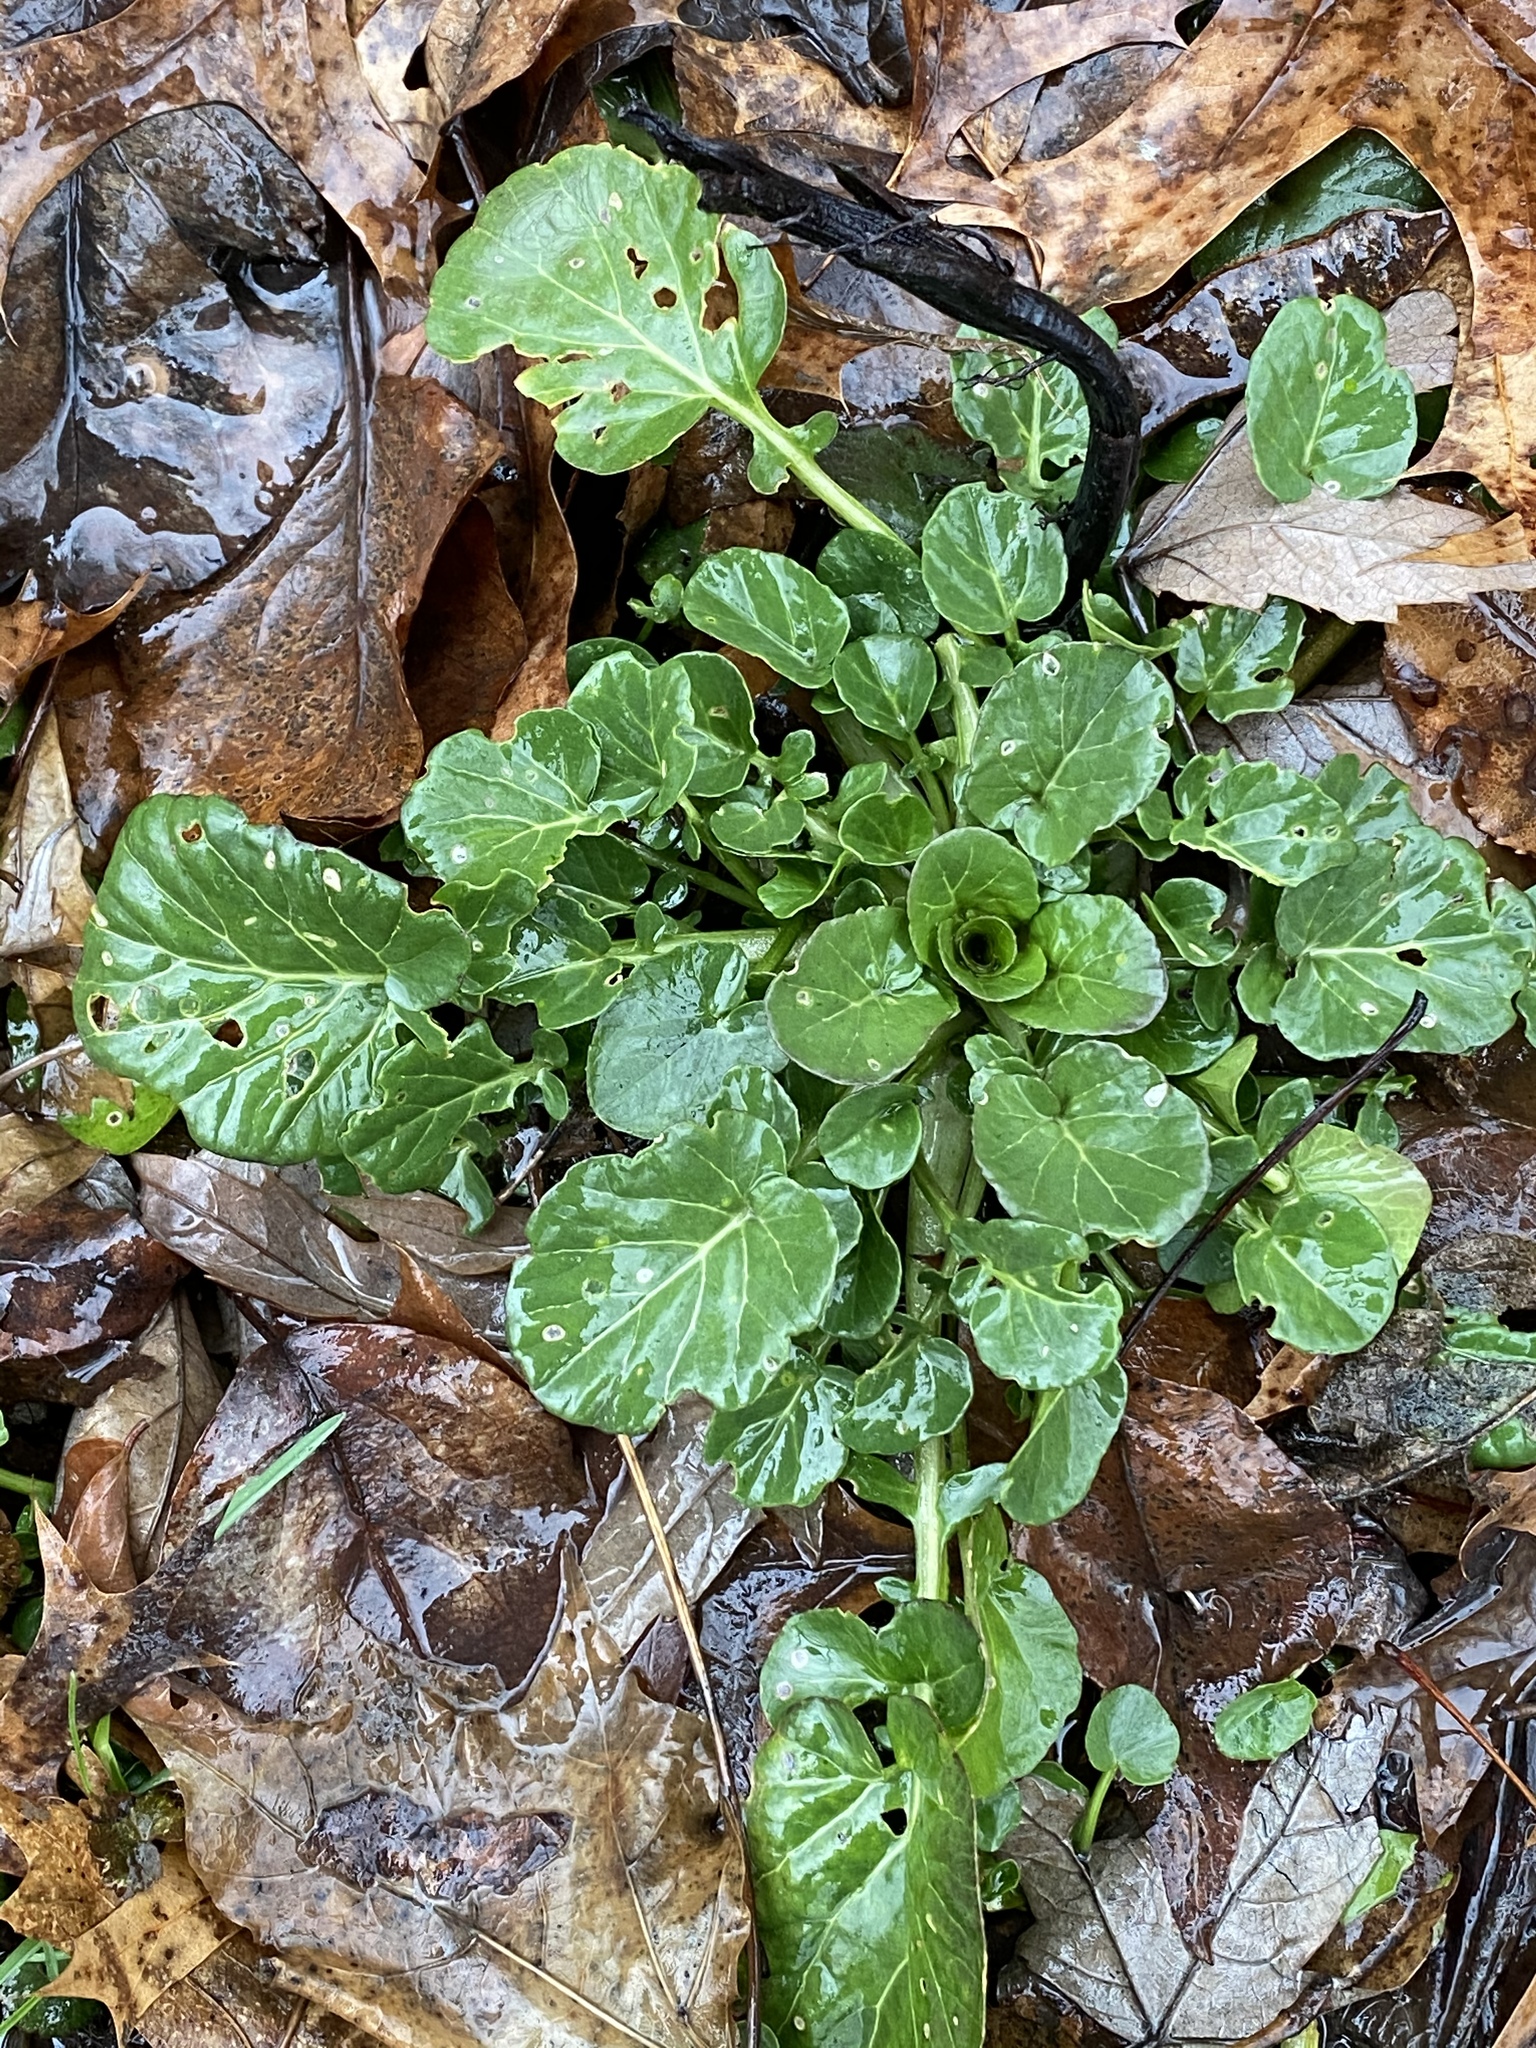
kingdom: Plantae
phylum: Tracheophyta
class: Magnoliopsida
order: Brassicales
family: Brassicaceae
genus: Barbarea
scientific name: Barbarea vulgaris
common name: Cressy-greens
